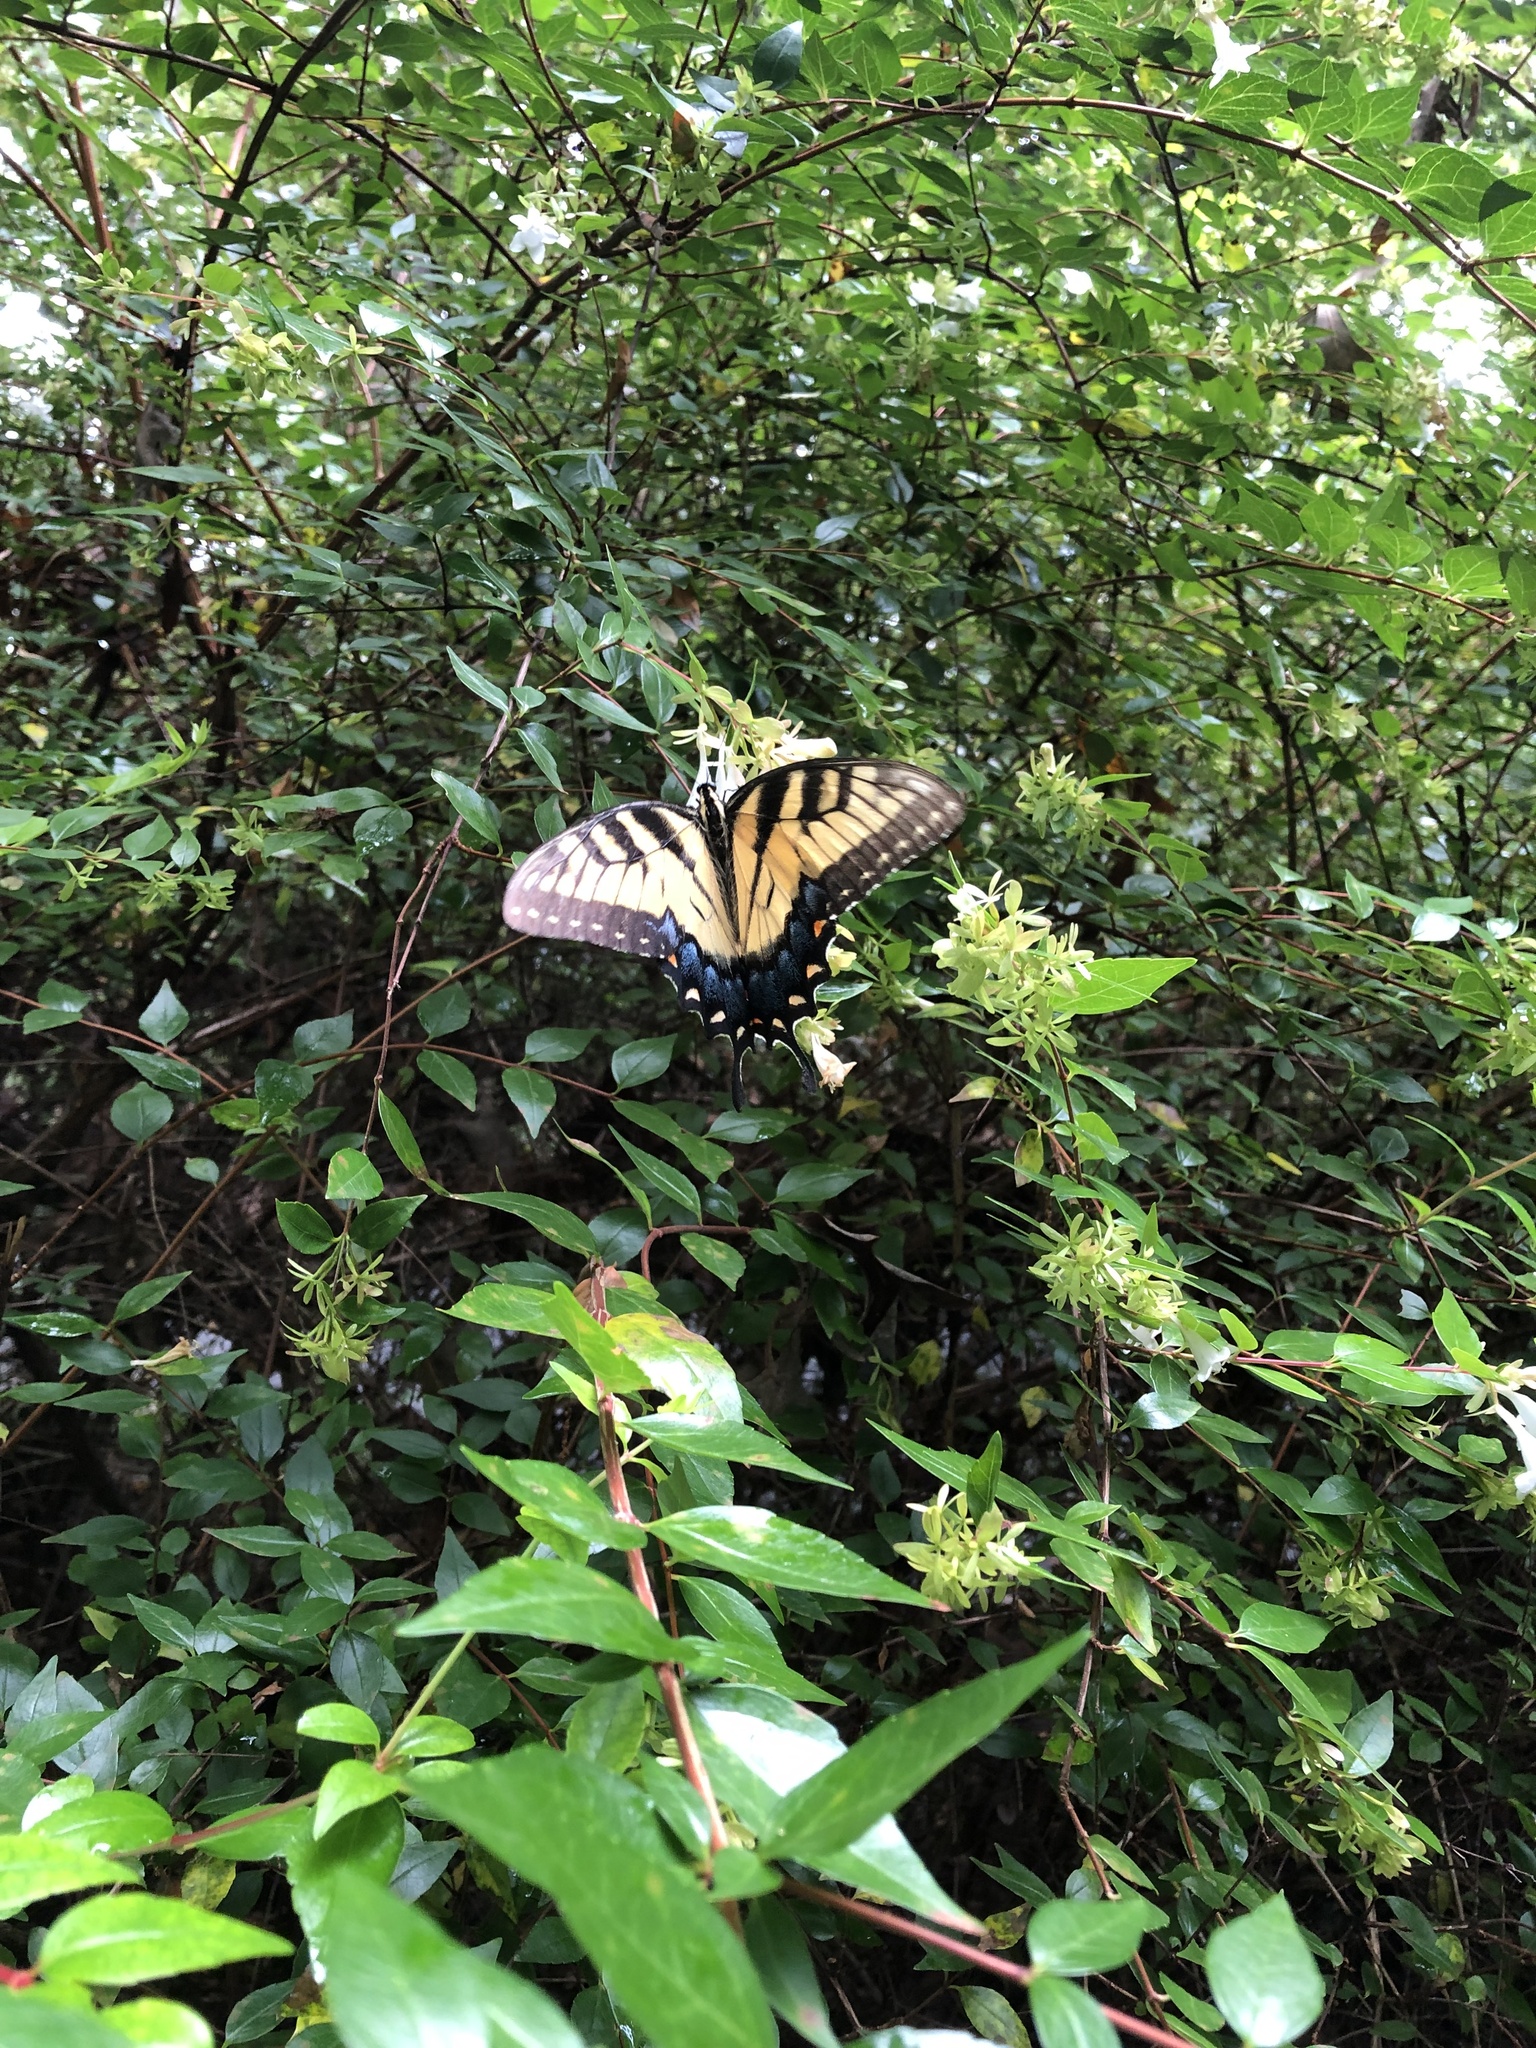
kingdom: Animalia
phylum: Arthropoda
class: Insecta
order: Lepidoptera
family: Papilionidae
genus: Papilio
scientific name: Papilio glaucus
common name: Tiger swallowtail
